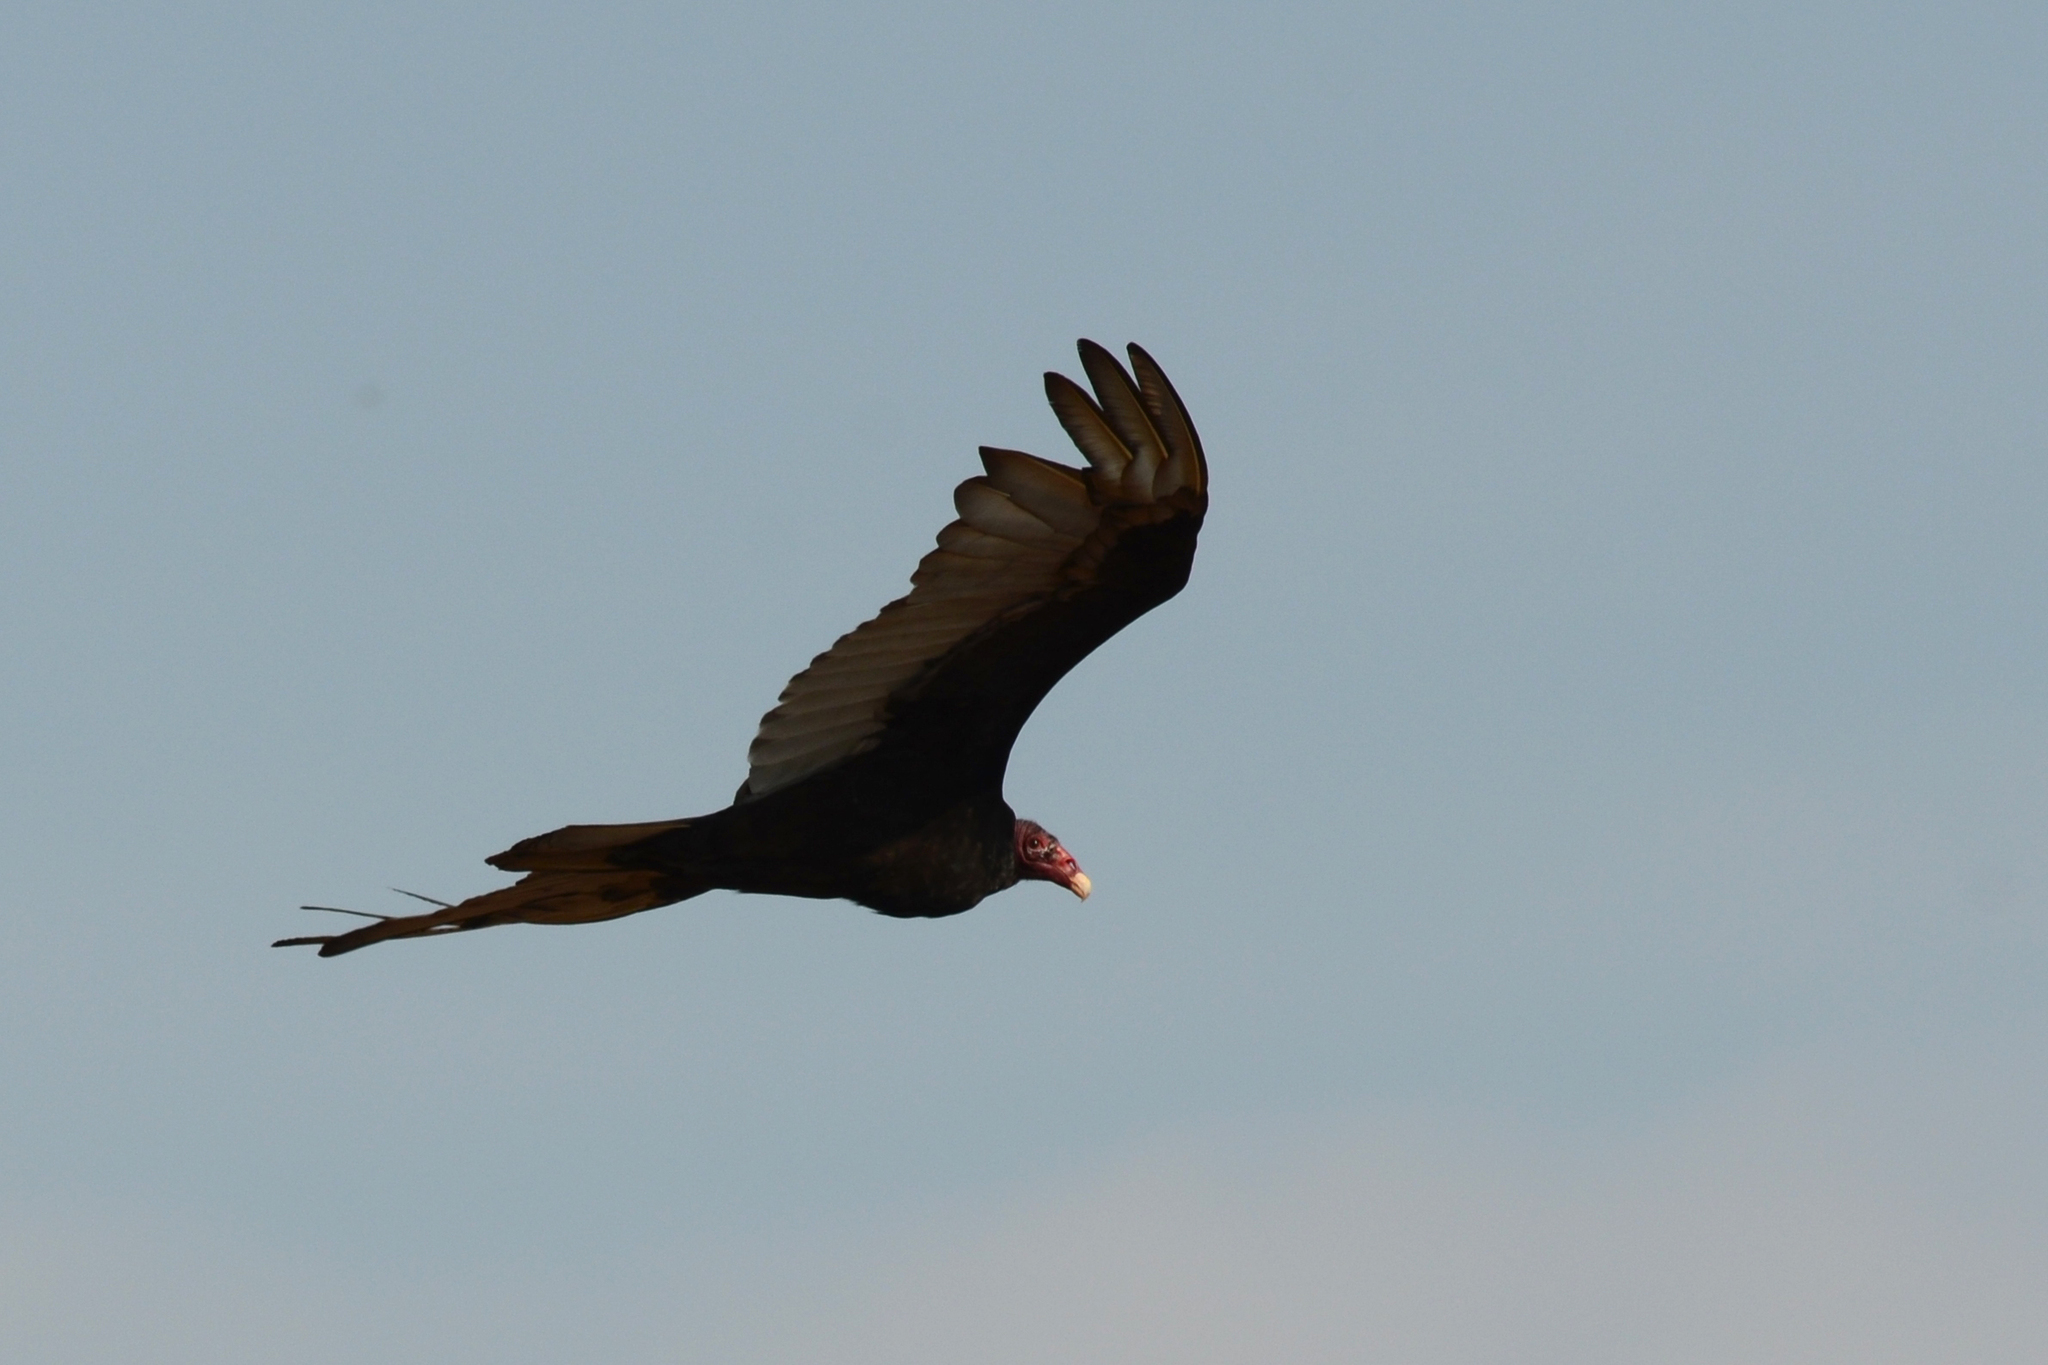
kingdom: Animalia
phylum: Chordata
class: Aves
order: Accipitriformes
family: Cathartidae
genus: Cathartes
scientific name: Cathartes aura
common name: Turkey vulture
